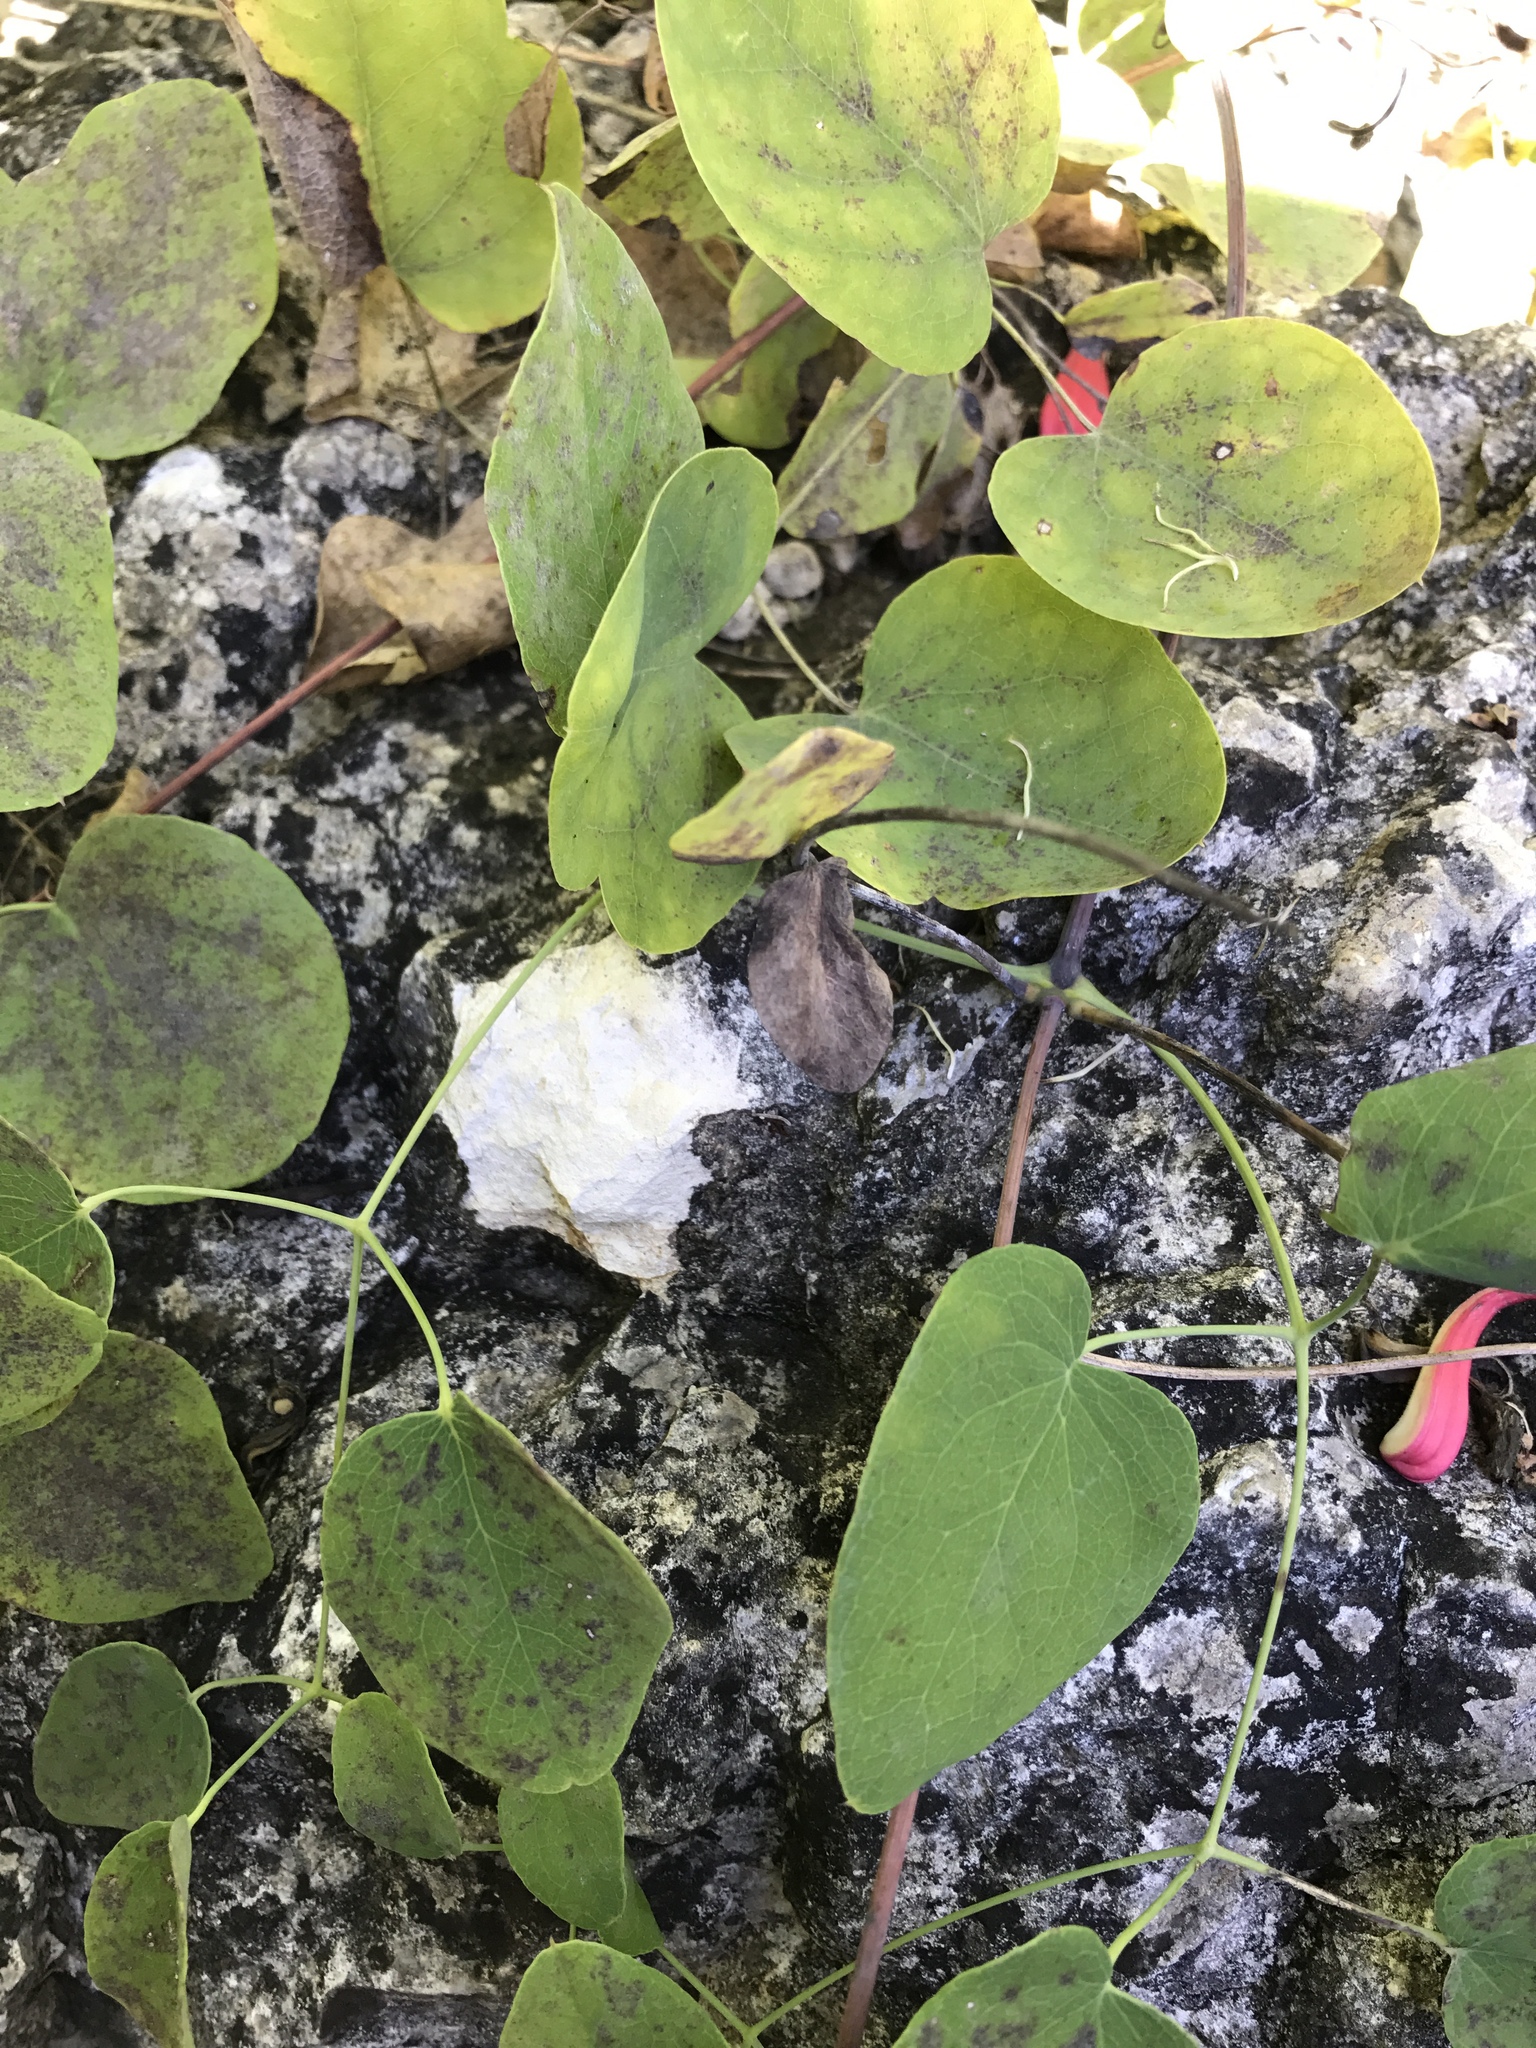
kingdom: Plantae
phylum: Tracheophyta
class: Magnoliopsida
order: Ranunculales
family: Ranunculaceae
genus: Clematis
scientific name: Clematis texensis
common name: Crimson clematis
